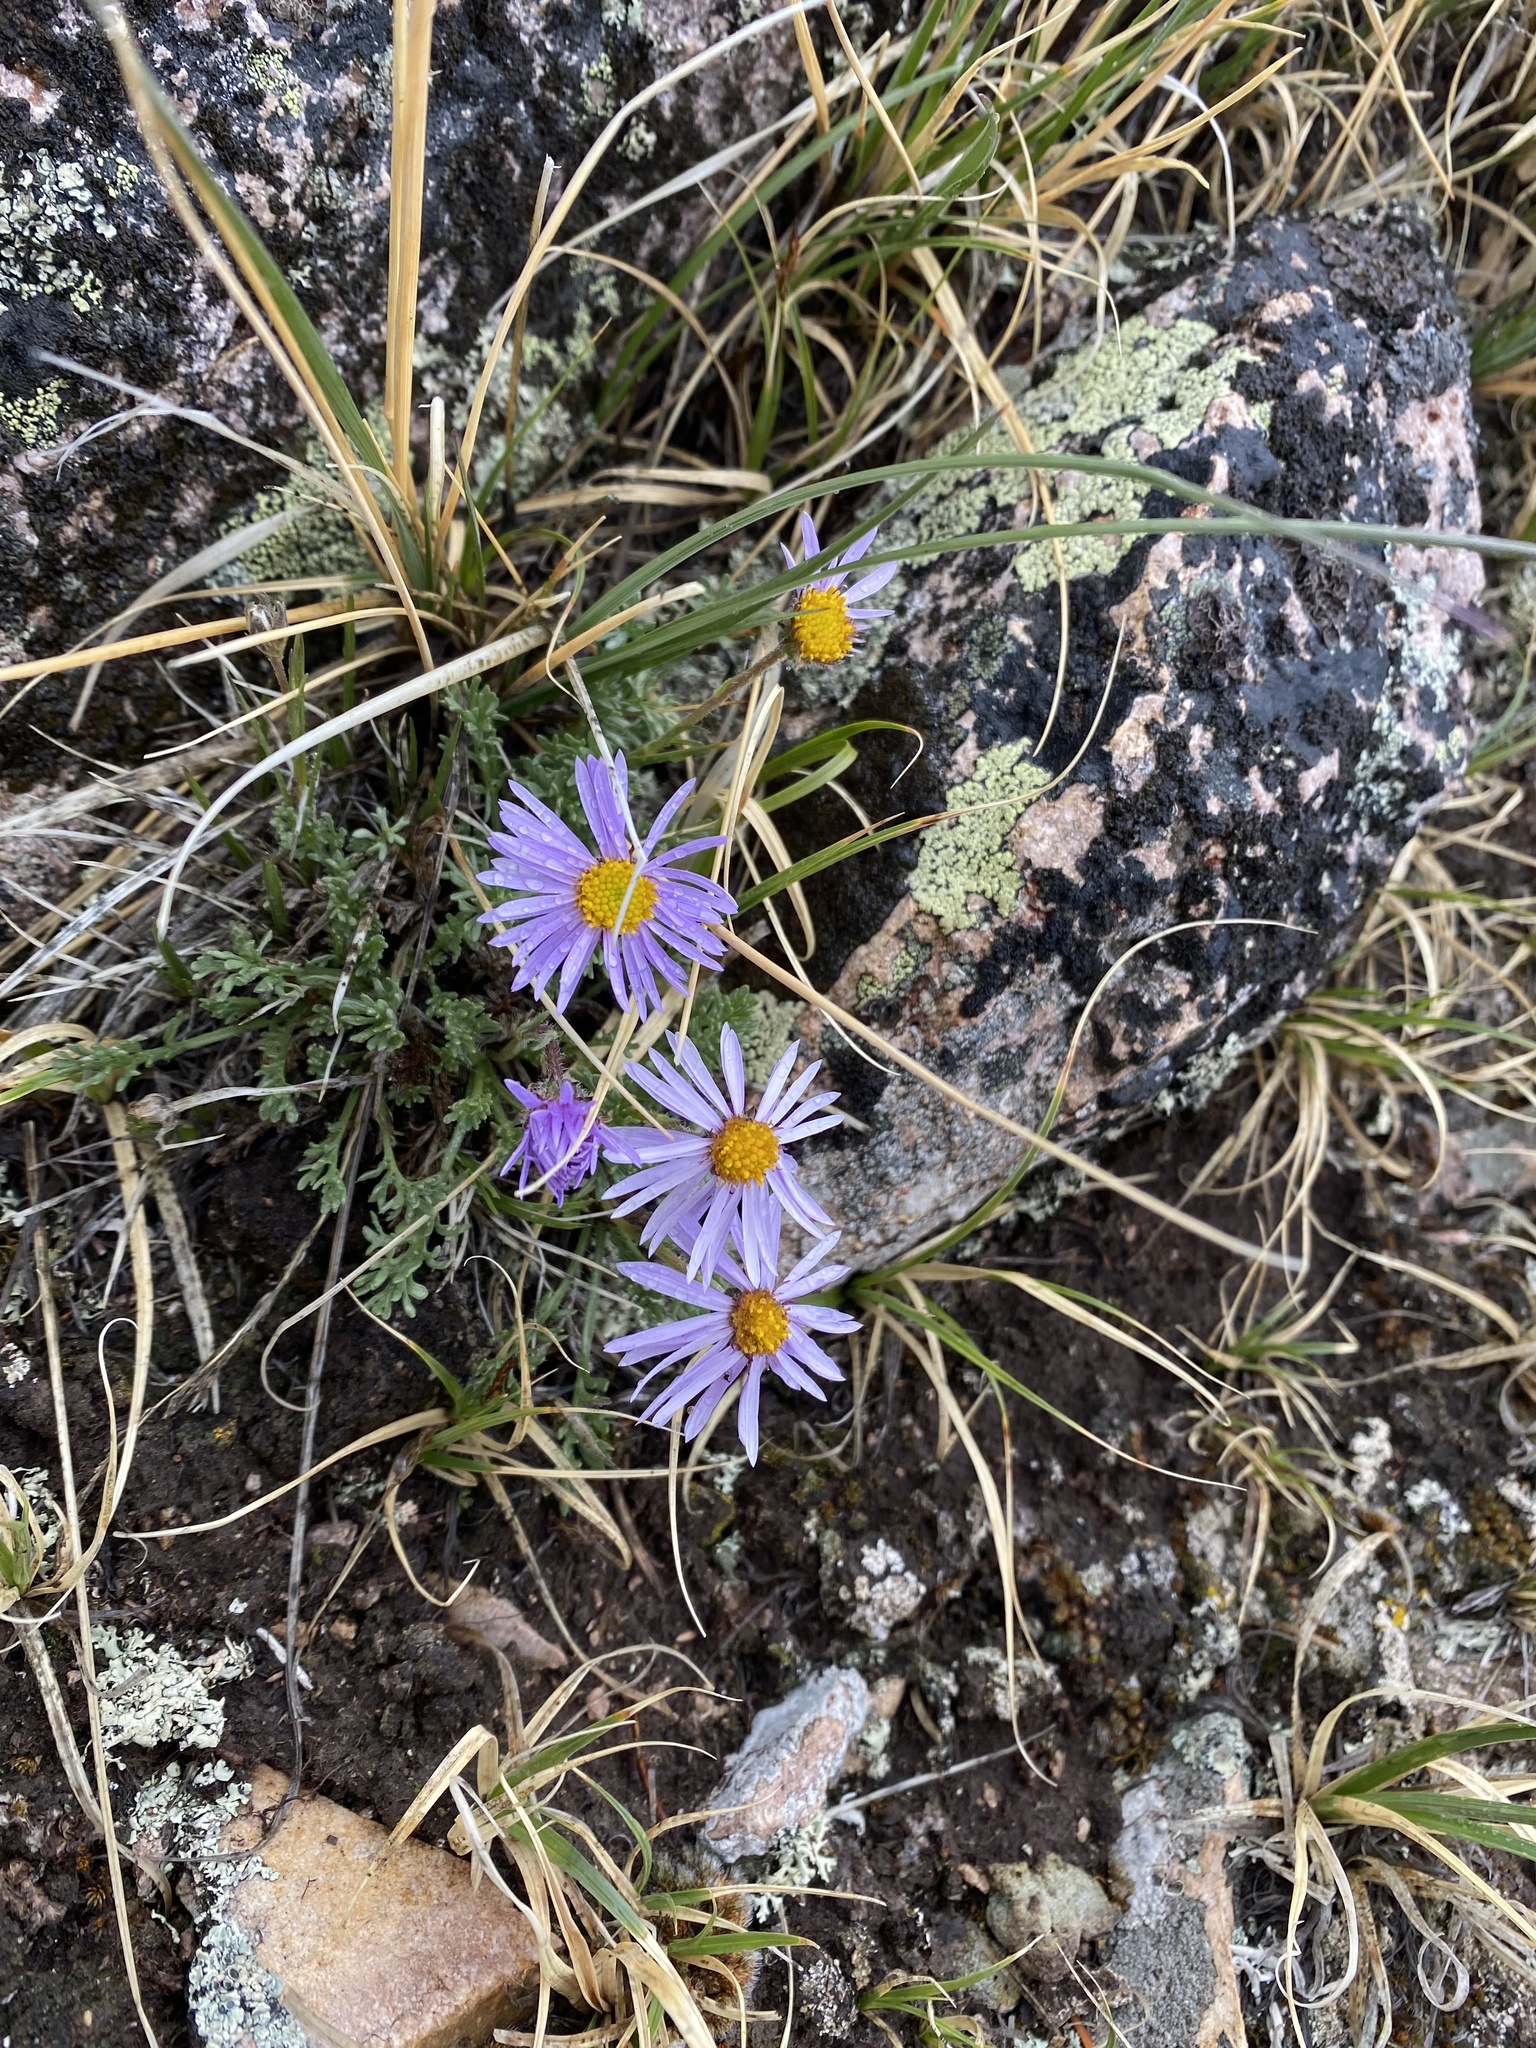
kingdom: Plantae
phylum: Tracheophyta
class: Magnoliopsida
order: Asterales
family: Asteraceae
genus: Erigeron
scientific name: Erigeron pinnatisectus
